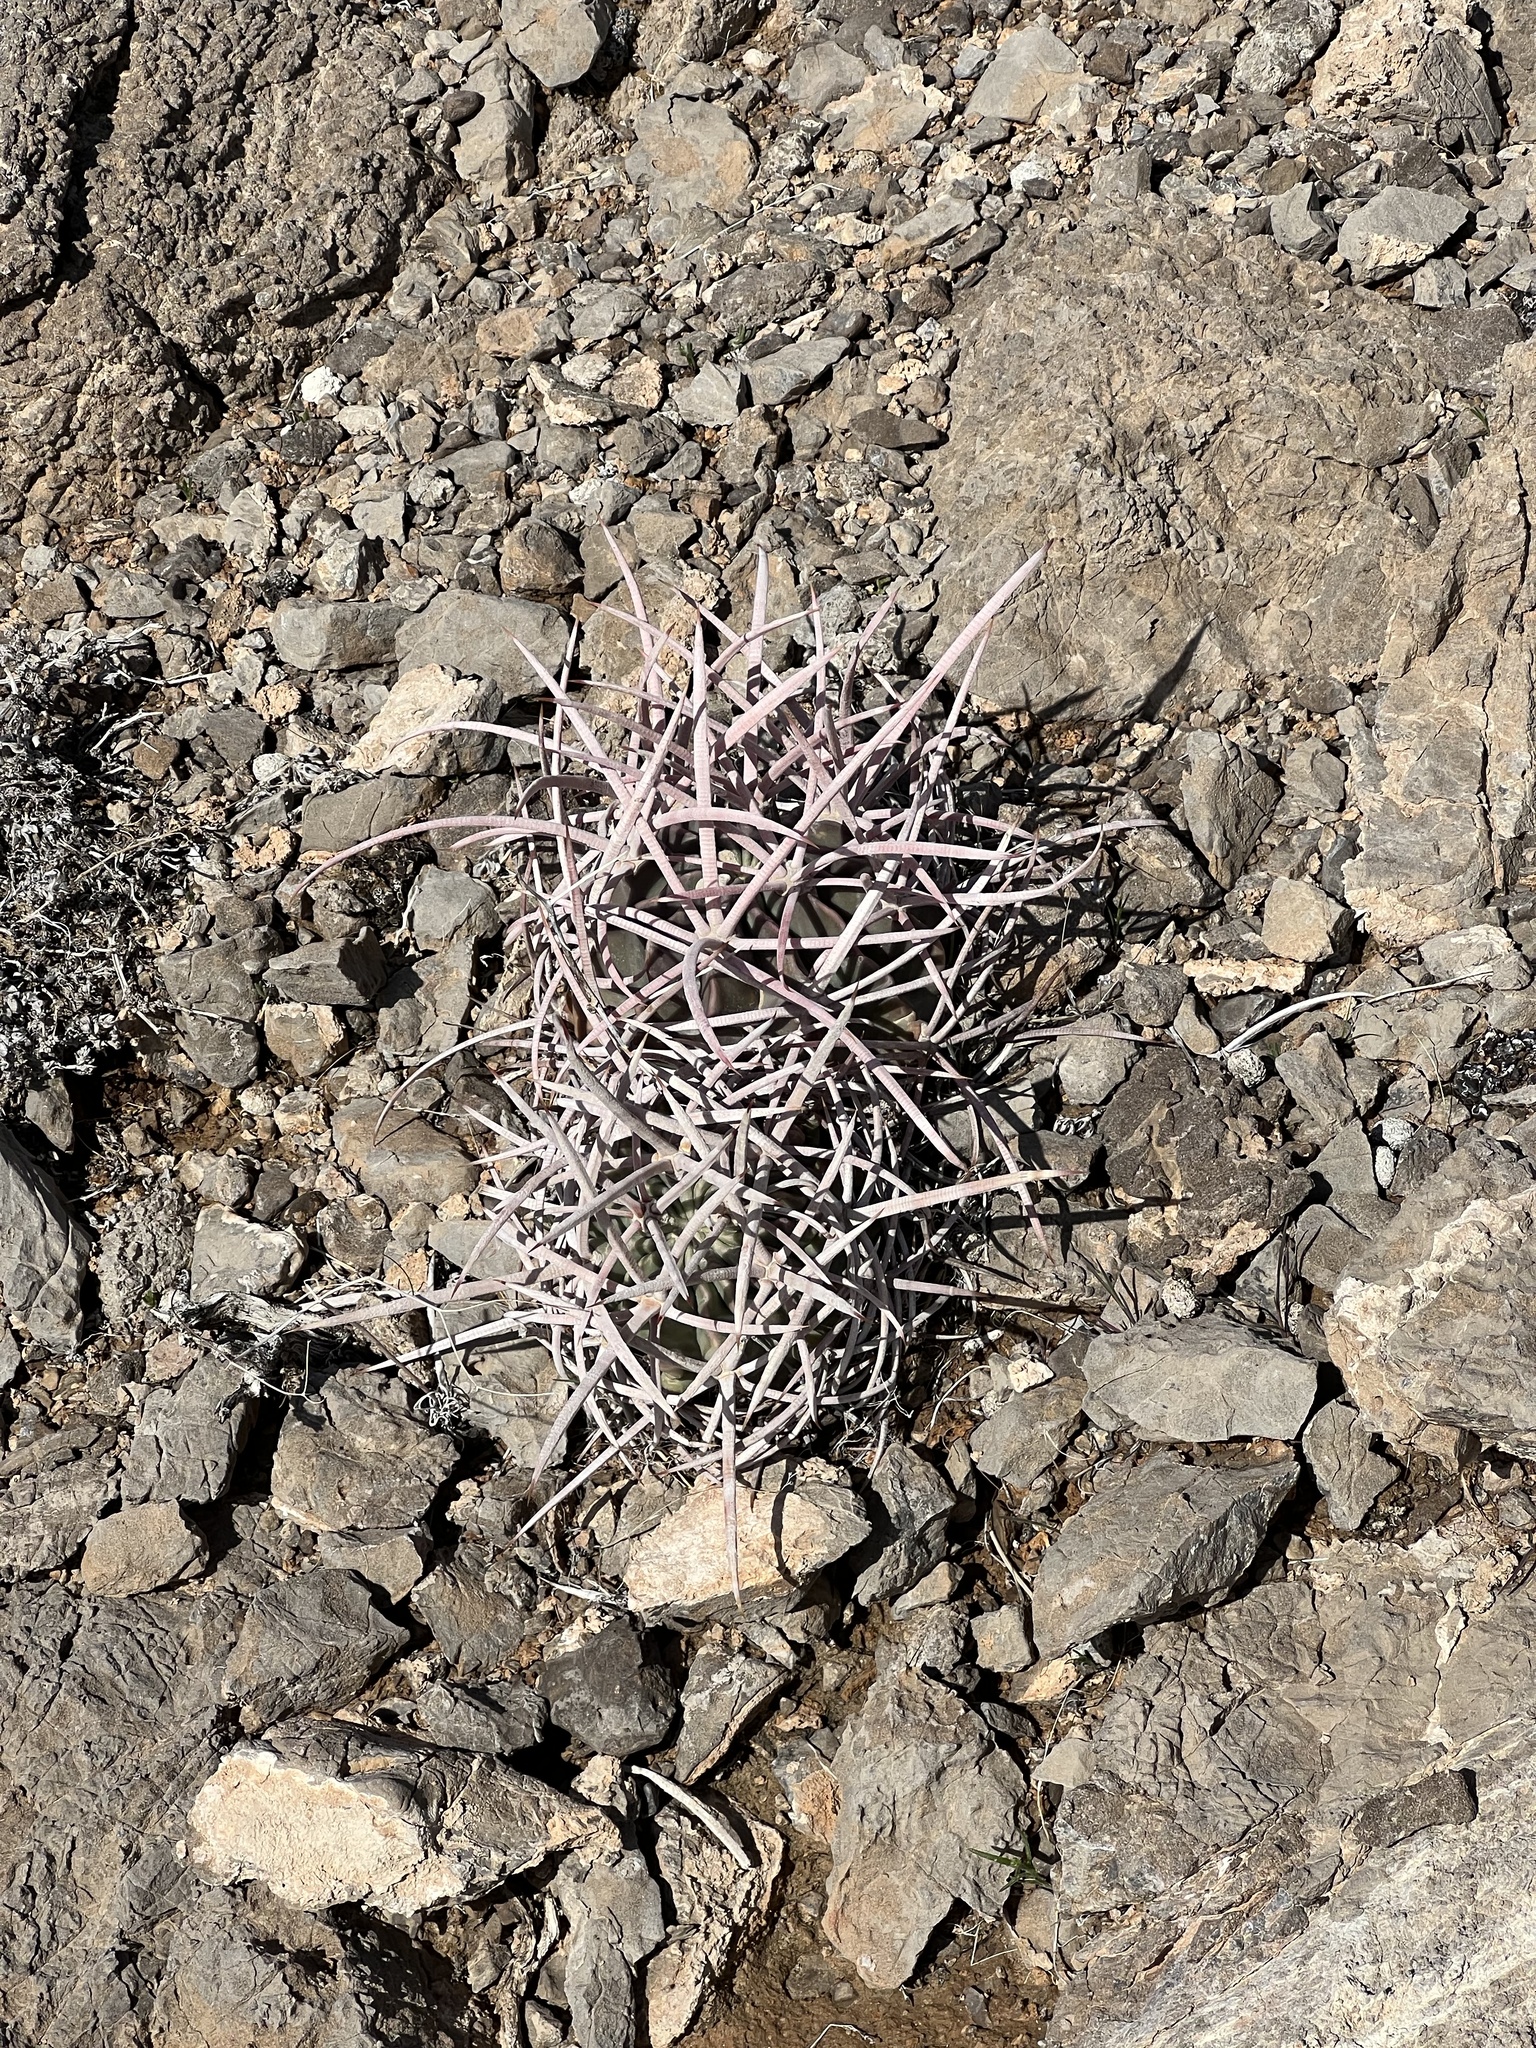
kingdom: Plantae
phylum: Tracheophyta
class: Magnoliopsida
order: Caryophyllales
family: Cactaceae
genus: Echinocactus
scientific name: Echinocactus polycephalus
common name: Cottontop cactus
